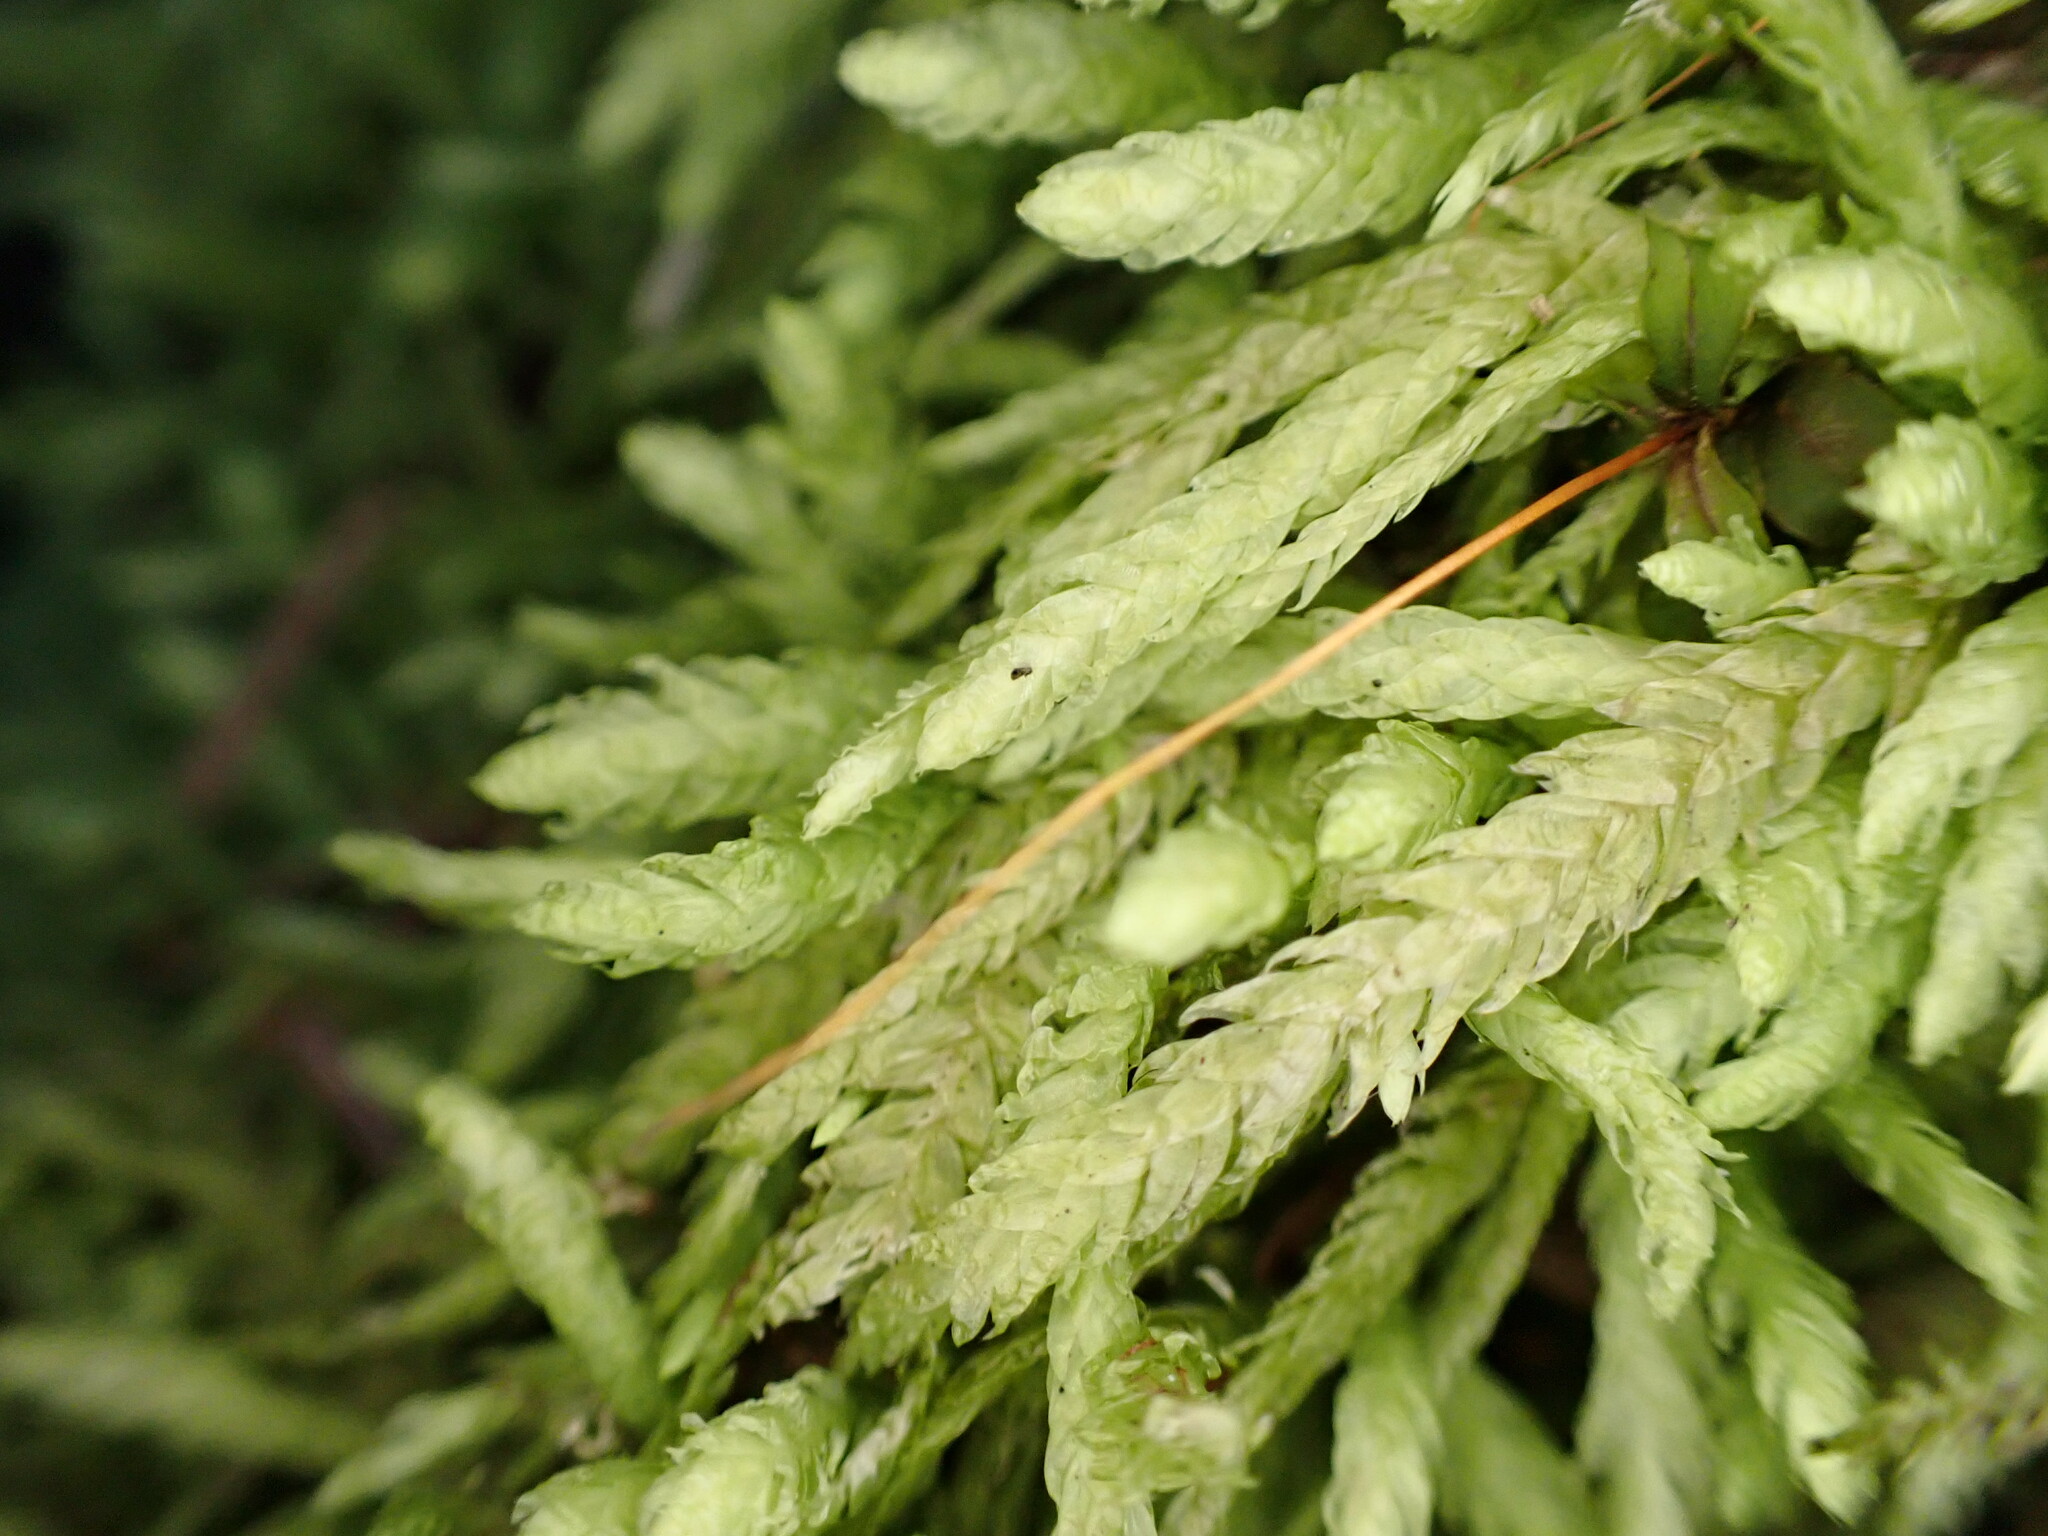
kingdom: Plantae
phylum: Bryophyta
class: Bryopsida
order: Hypnales
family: Plagiotheciaceae
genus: Plagiothecium
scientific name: Plagiothecium undulatum
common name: Waved silk-moss
